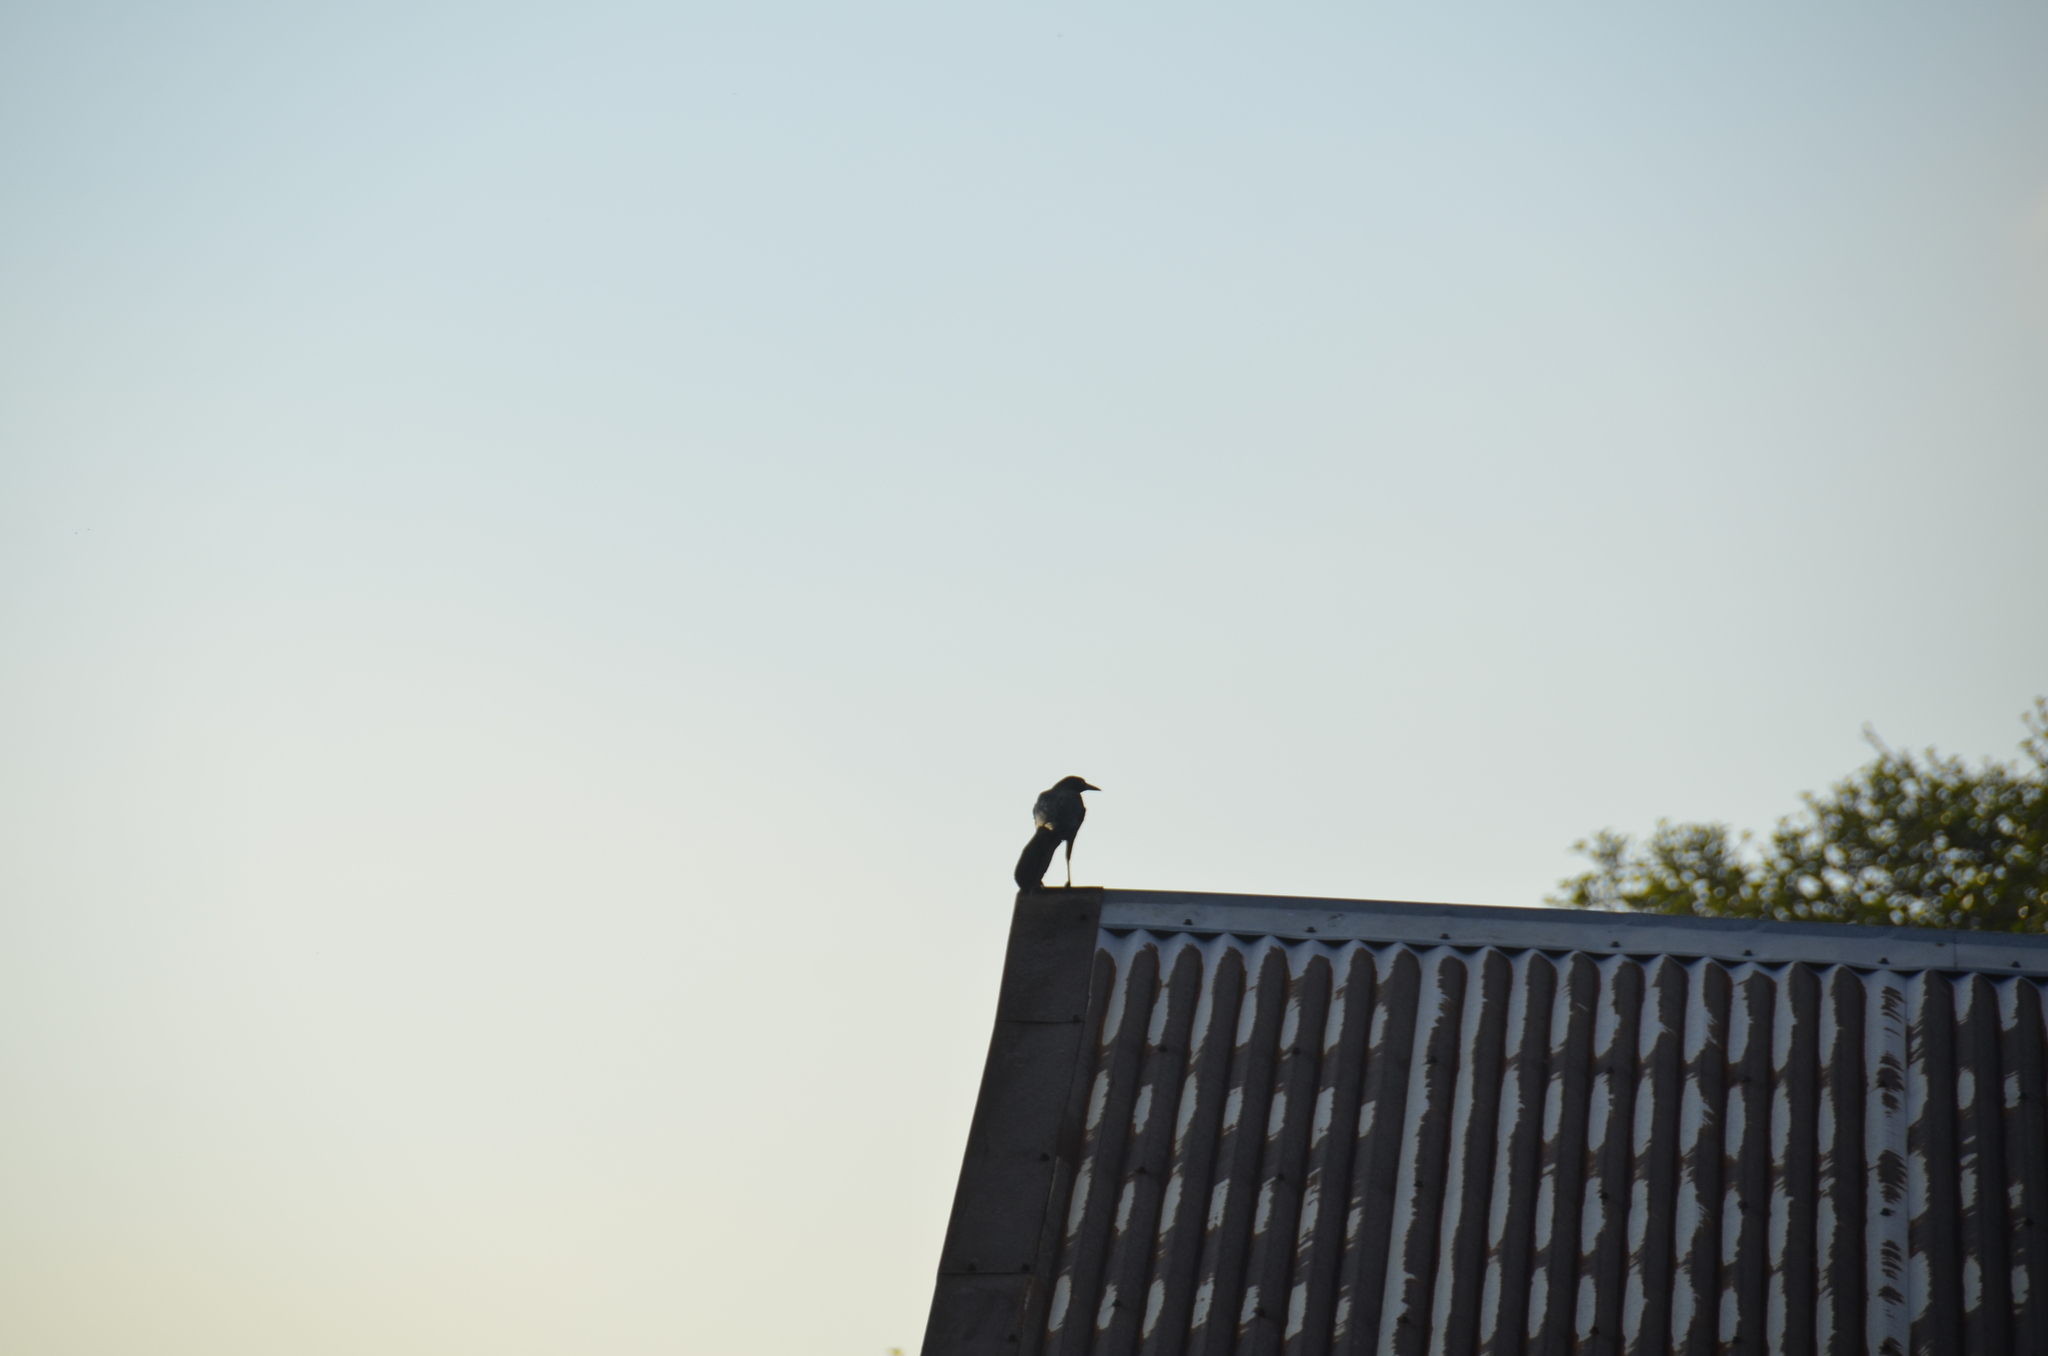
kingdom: Animalia
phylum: Chordata
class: Aves
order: Passeriformes
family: Icteridae
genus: Quiscalus
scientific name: Quiscalus mexicanus
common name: Great-tailed grackle
